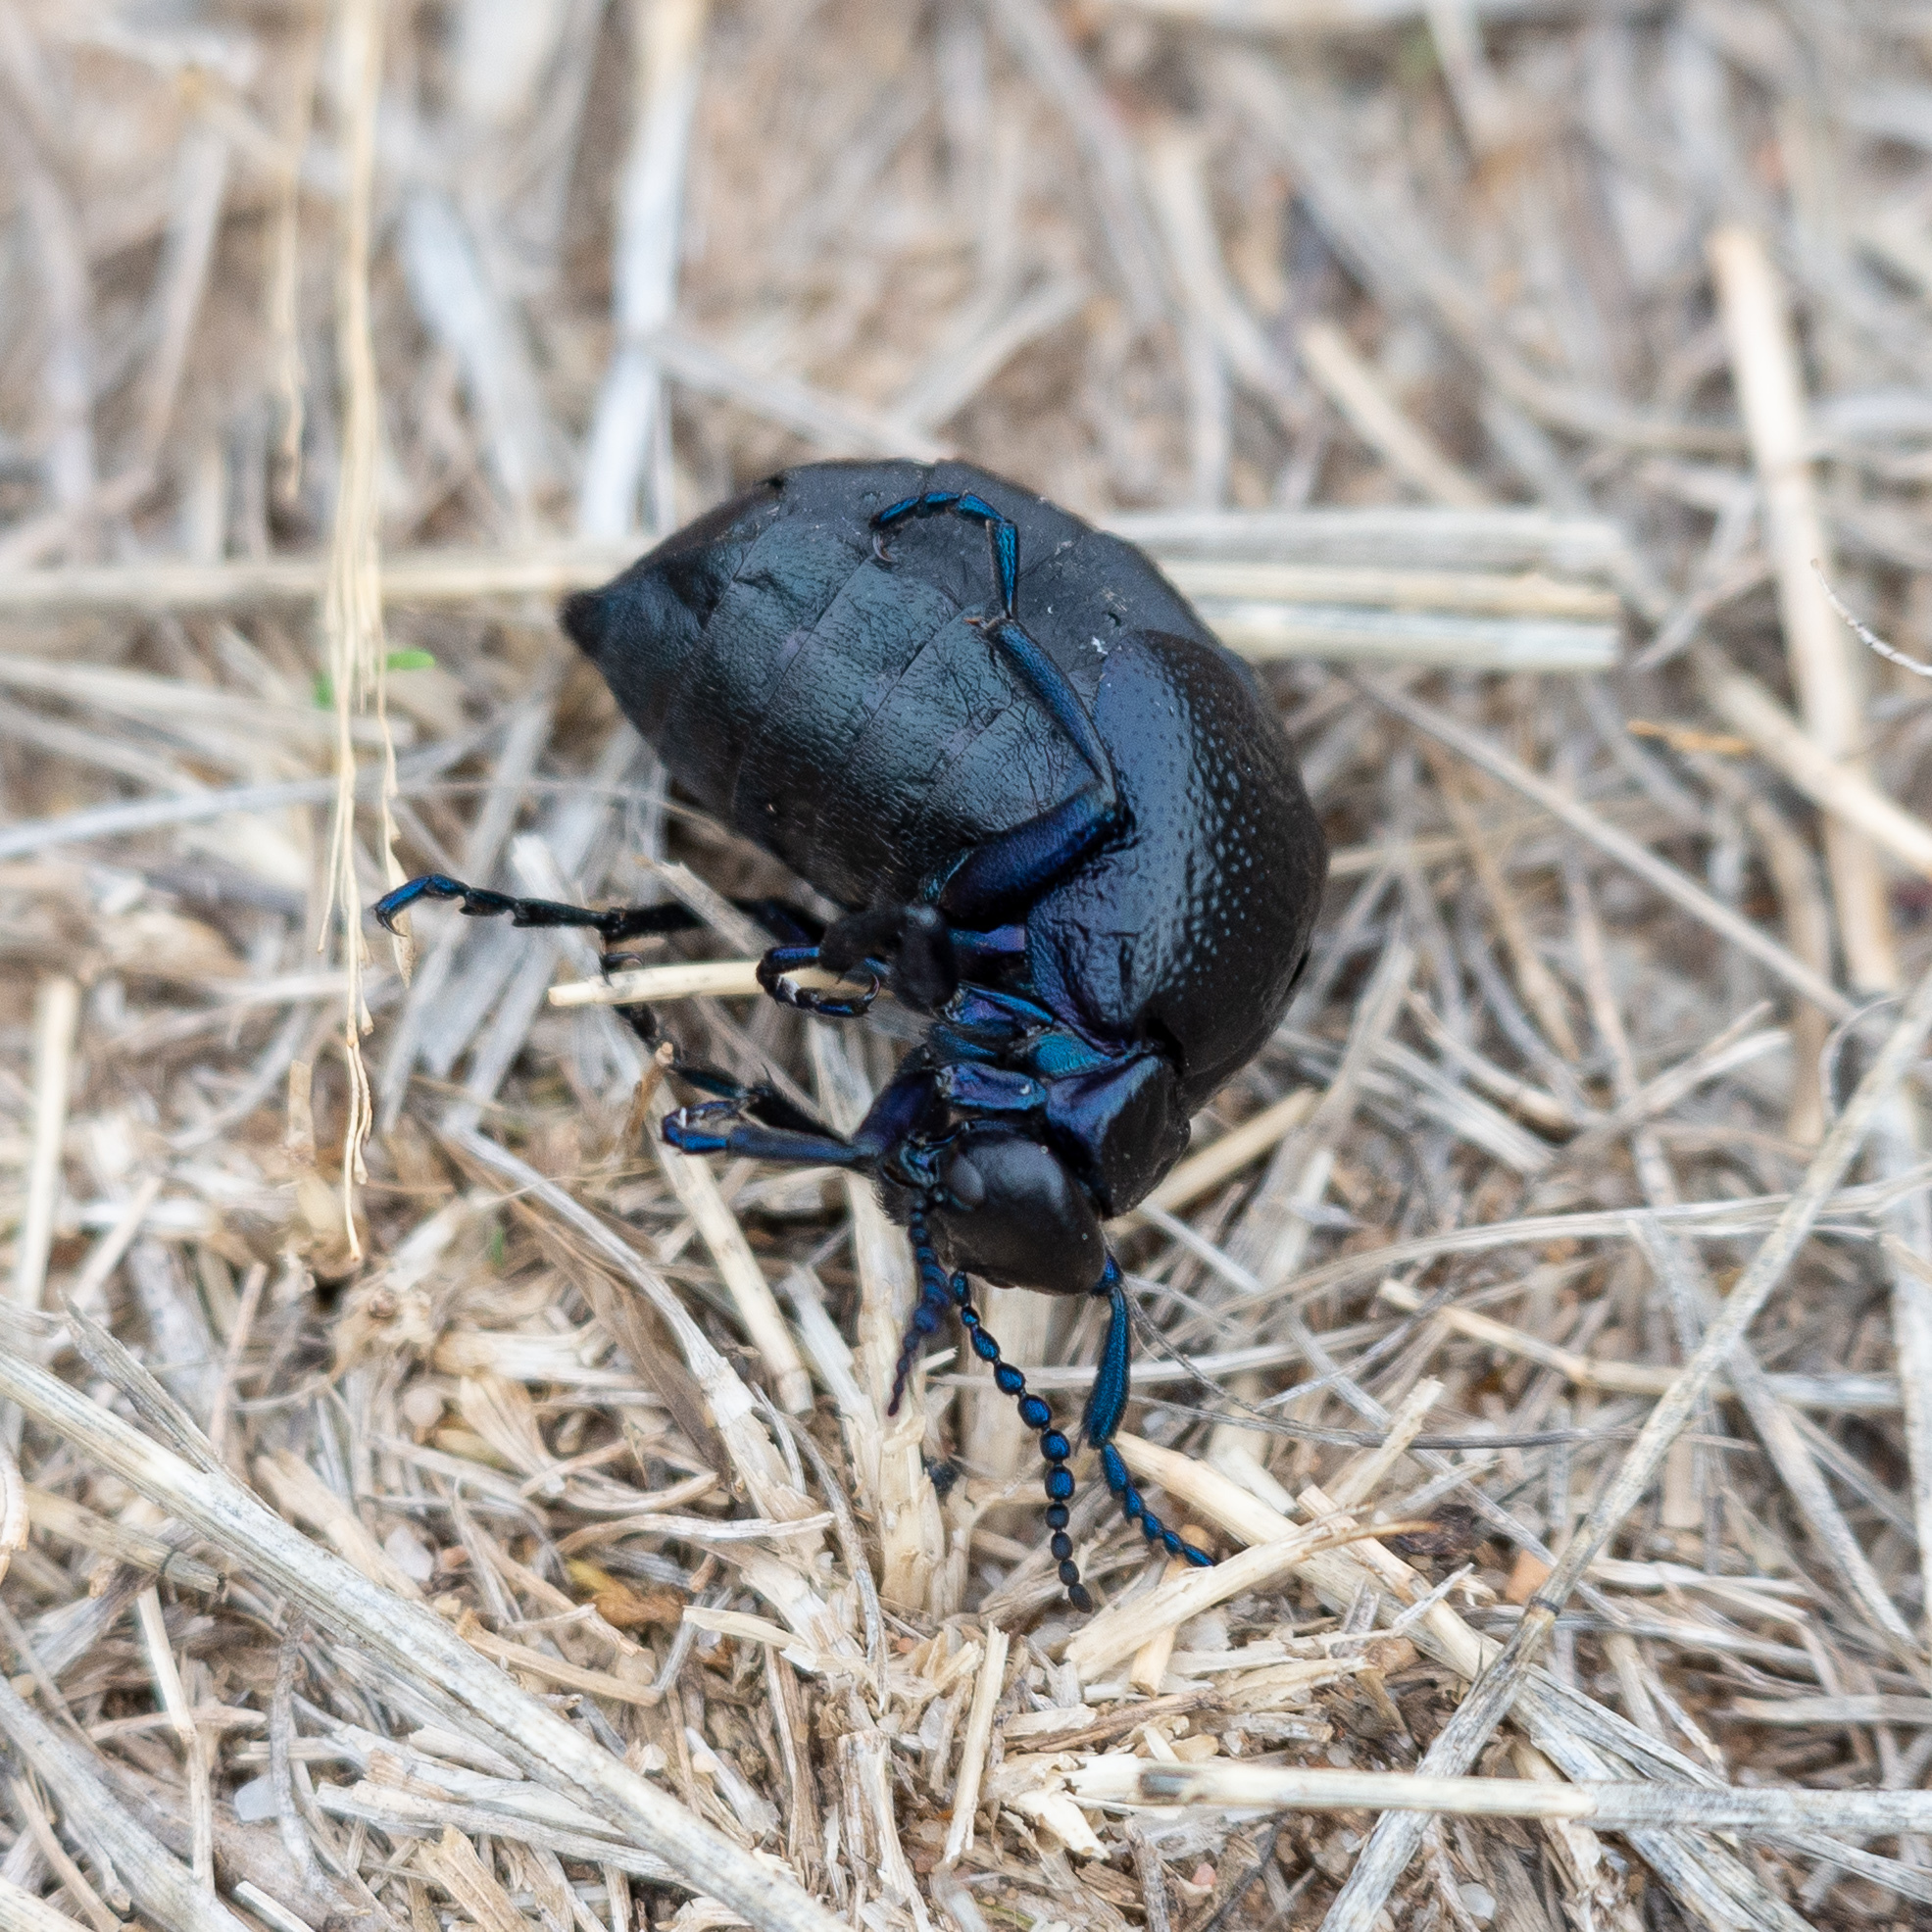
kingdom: Animalia
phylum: Arthropoda
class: Insecta
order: Coleoptera
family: Meloidae
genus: Meloe
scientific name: Meloe autumnalis
